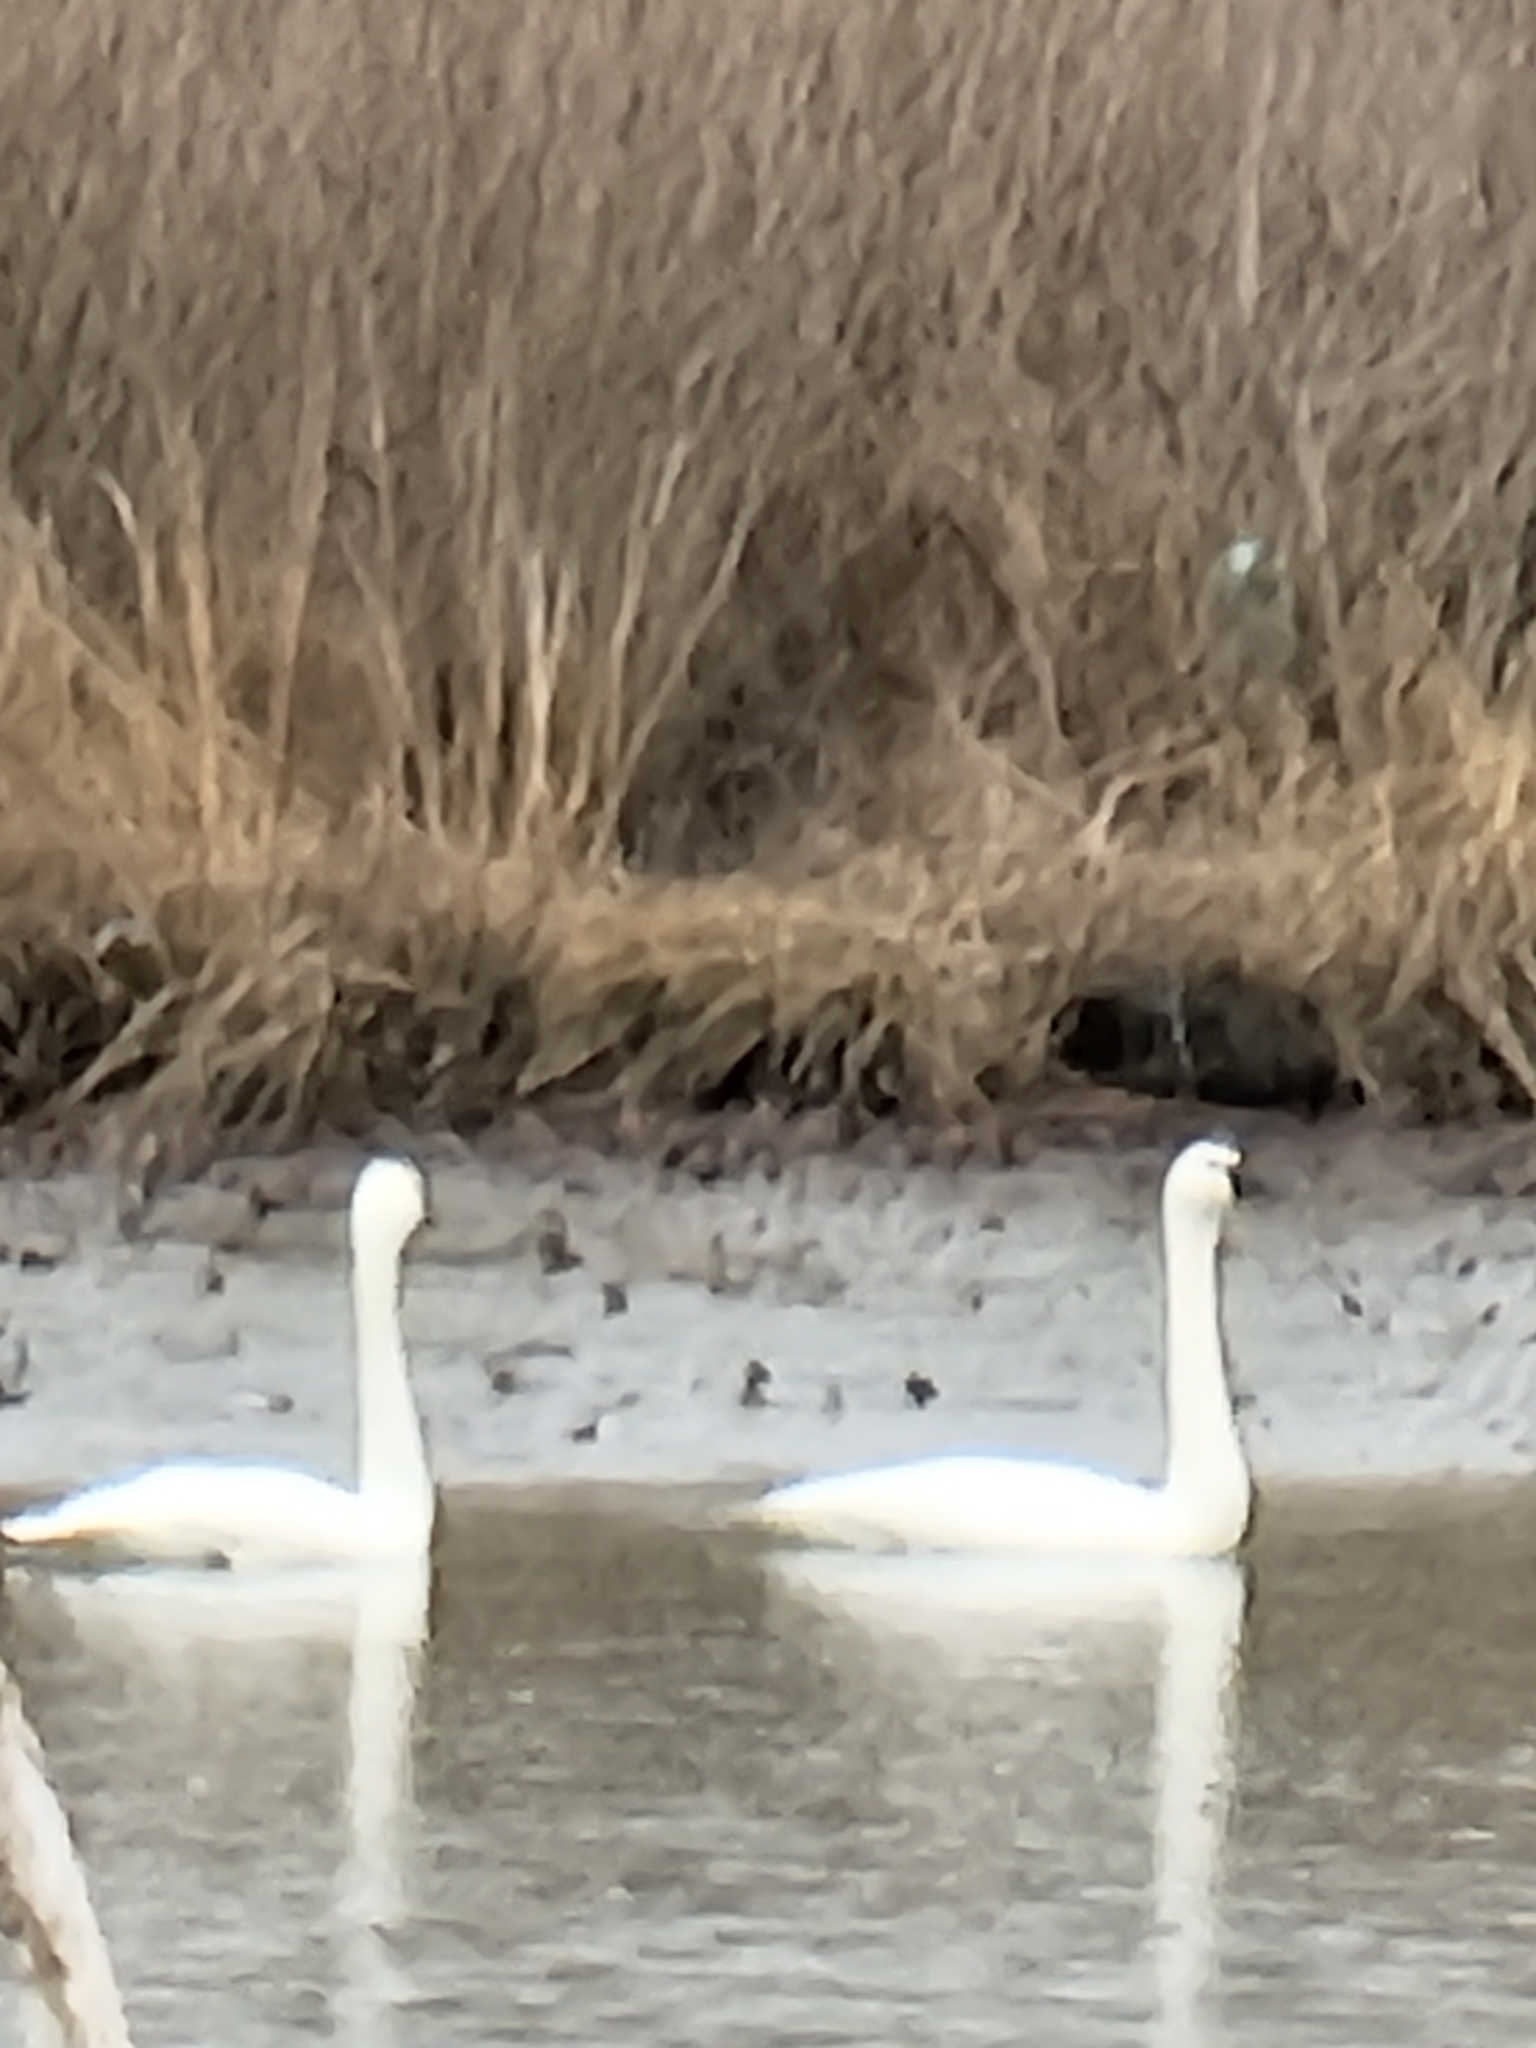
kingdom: Animalia
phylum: Chordata
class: Aves
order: Anseriformes
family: Anatidae
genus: Cygnus
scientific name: Cygnus columbianus
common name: Tundra swan
